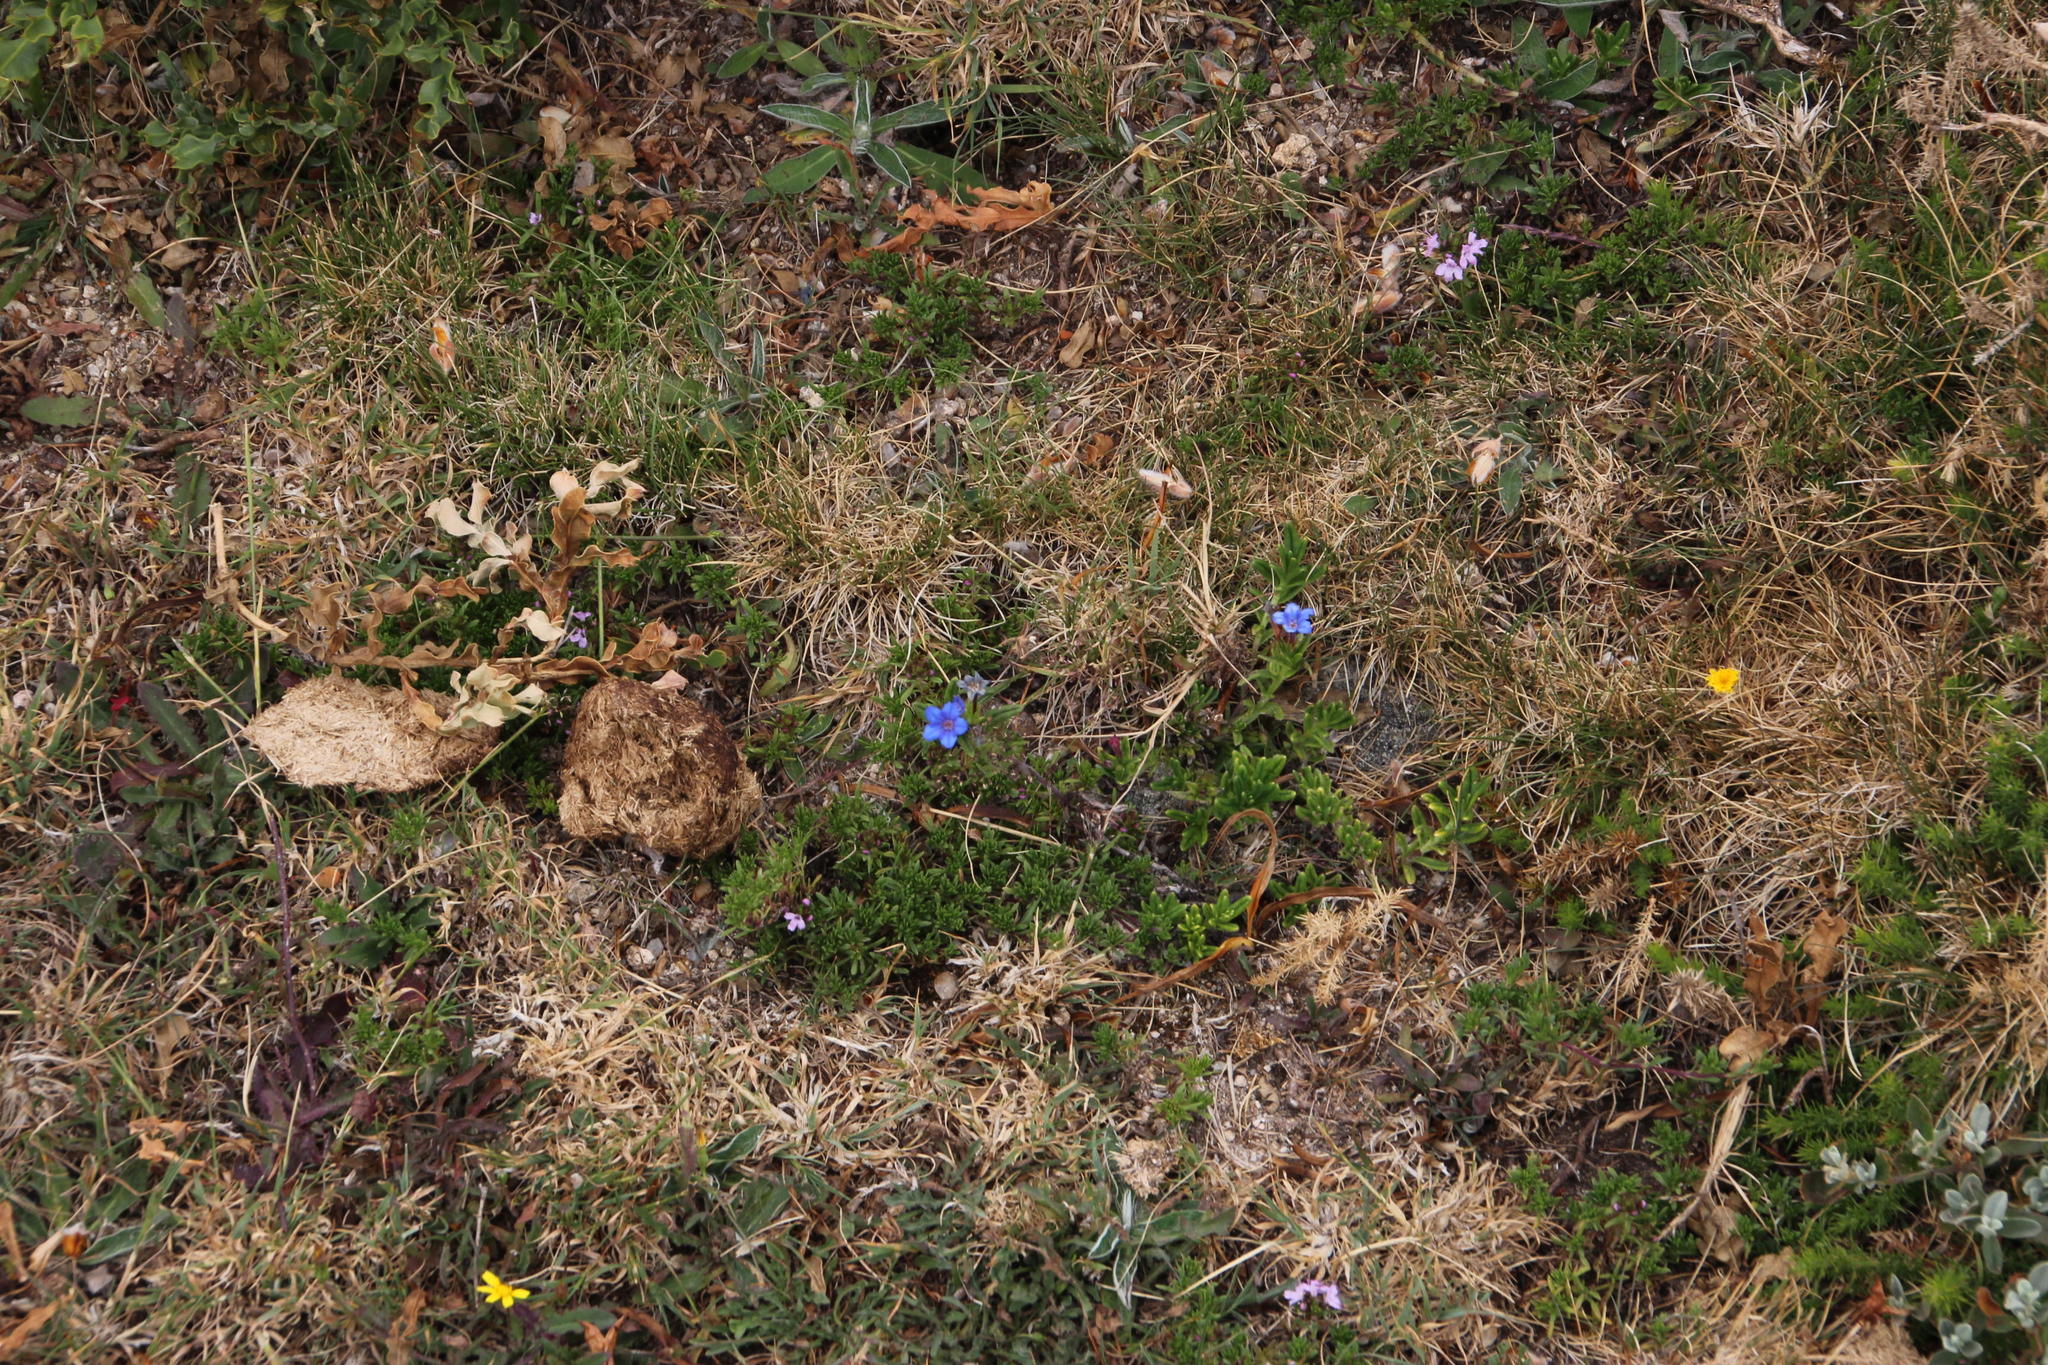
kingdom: Plantae
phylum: Tracheophyta
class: Magnoliopsida
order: Boraginales
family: Boraginaceae
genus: Glandora
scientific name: Glandora prostrata
